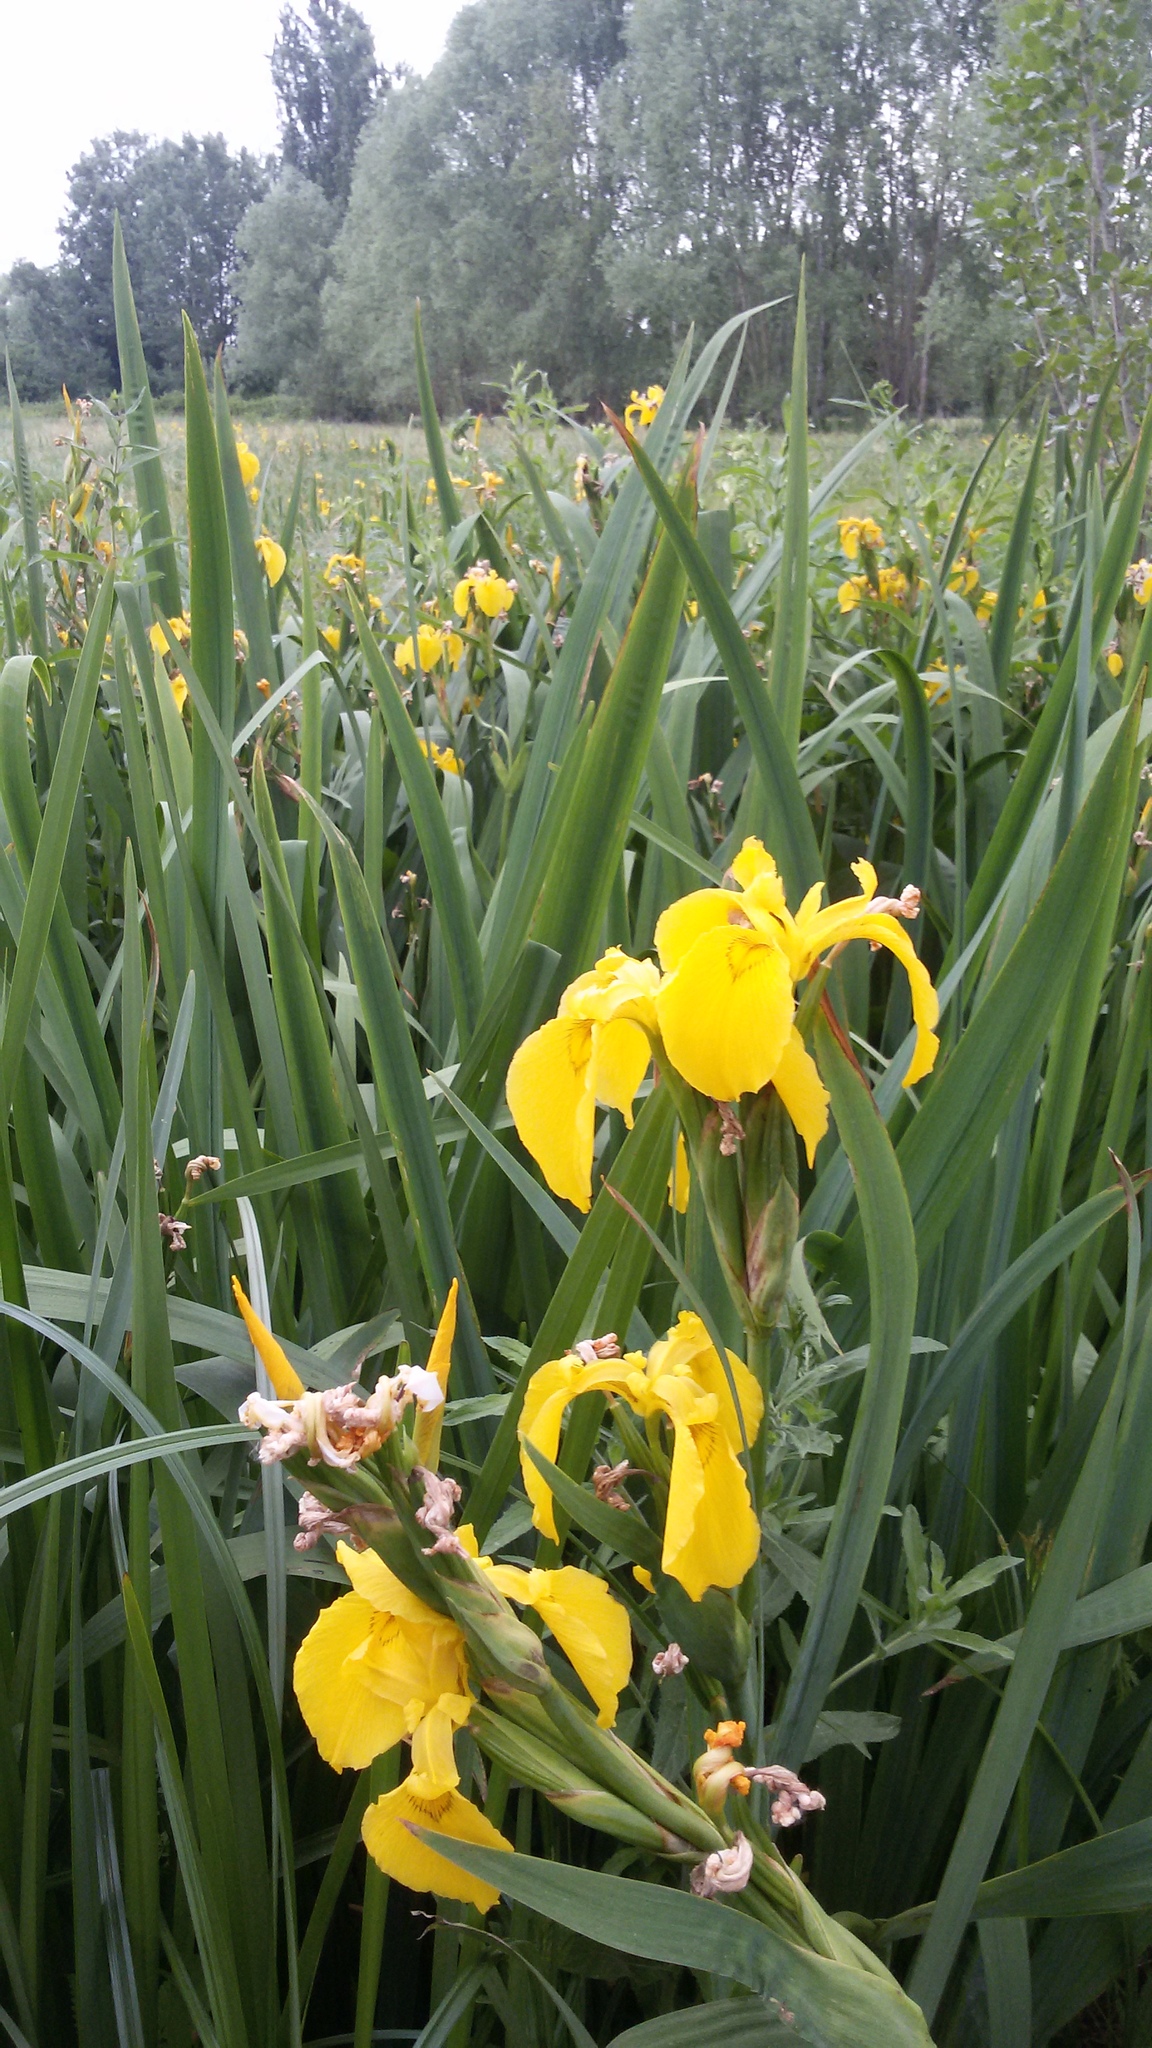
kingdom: Plantae
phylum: Tracheophyta
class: Liliopsida
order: Asparagales
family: Iridaceae
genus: Iris
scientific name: Iris pseudacorus
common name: Yellow flag
